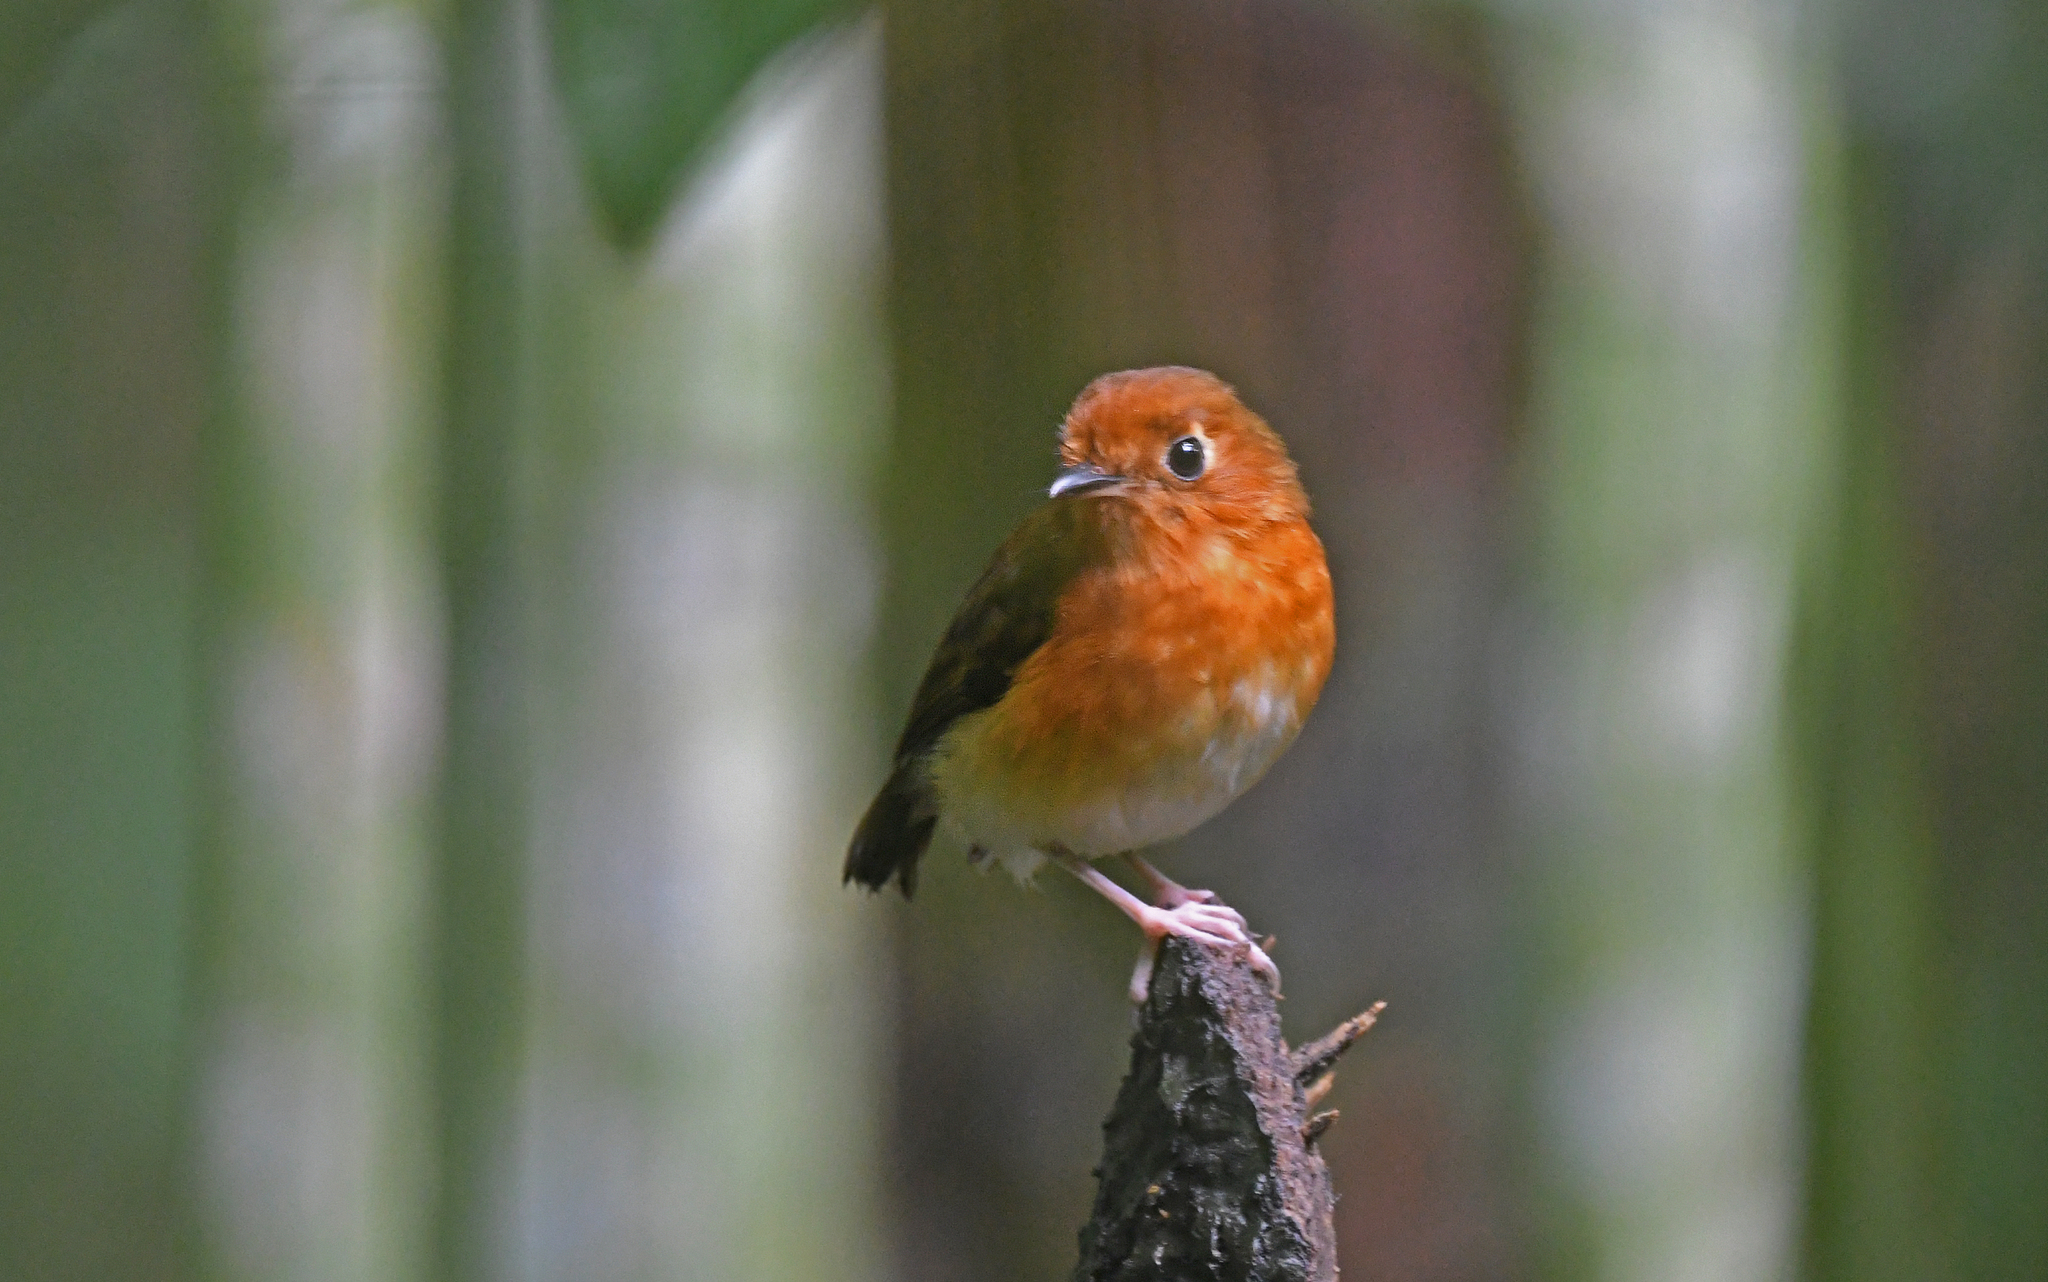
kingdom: Animalia
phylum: Chordata
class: Aves
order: Passeriformes
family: Grallariidae
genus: Grallaricula
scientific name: Grallaricula ferrugineipectus
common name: Rusty-breasted antpitta
